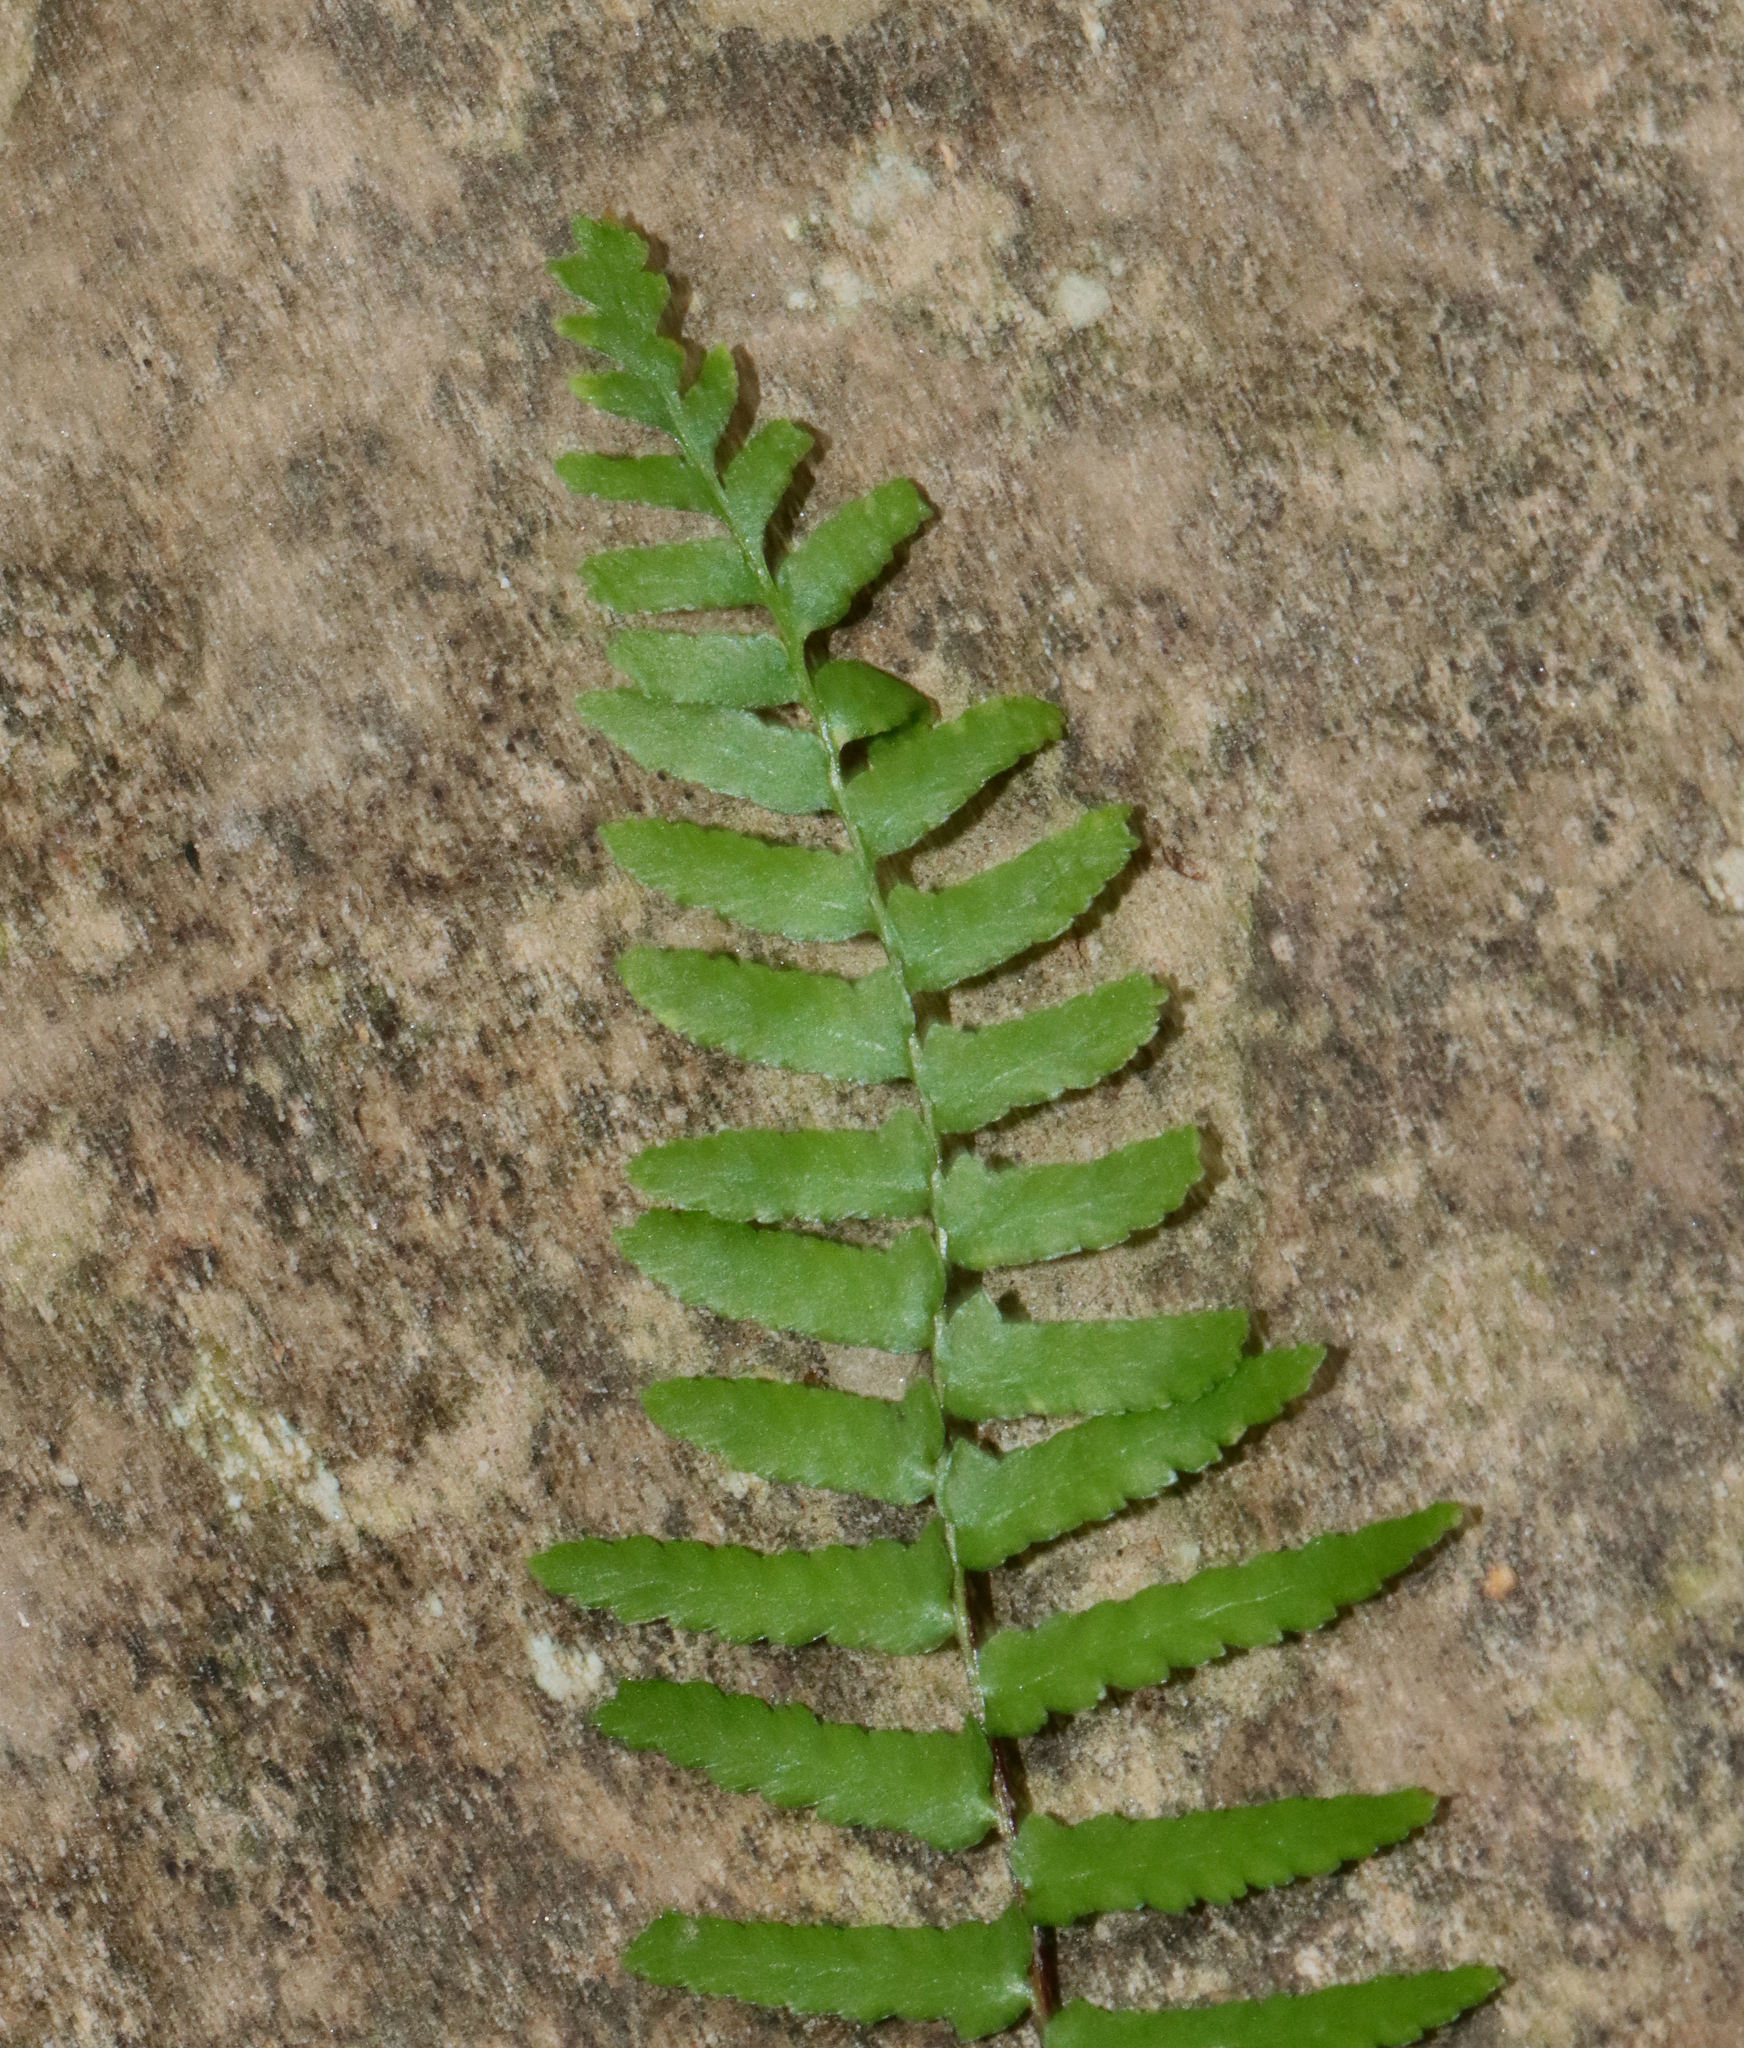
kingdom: Plantae
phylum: Tracheophyta
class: Polypodiopsida
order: Polypodiales
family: Aspleniaceae
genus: Asplenium
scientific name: Asplenium platyneuron
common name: Ebony spleenwort
